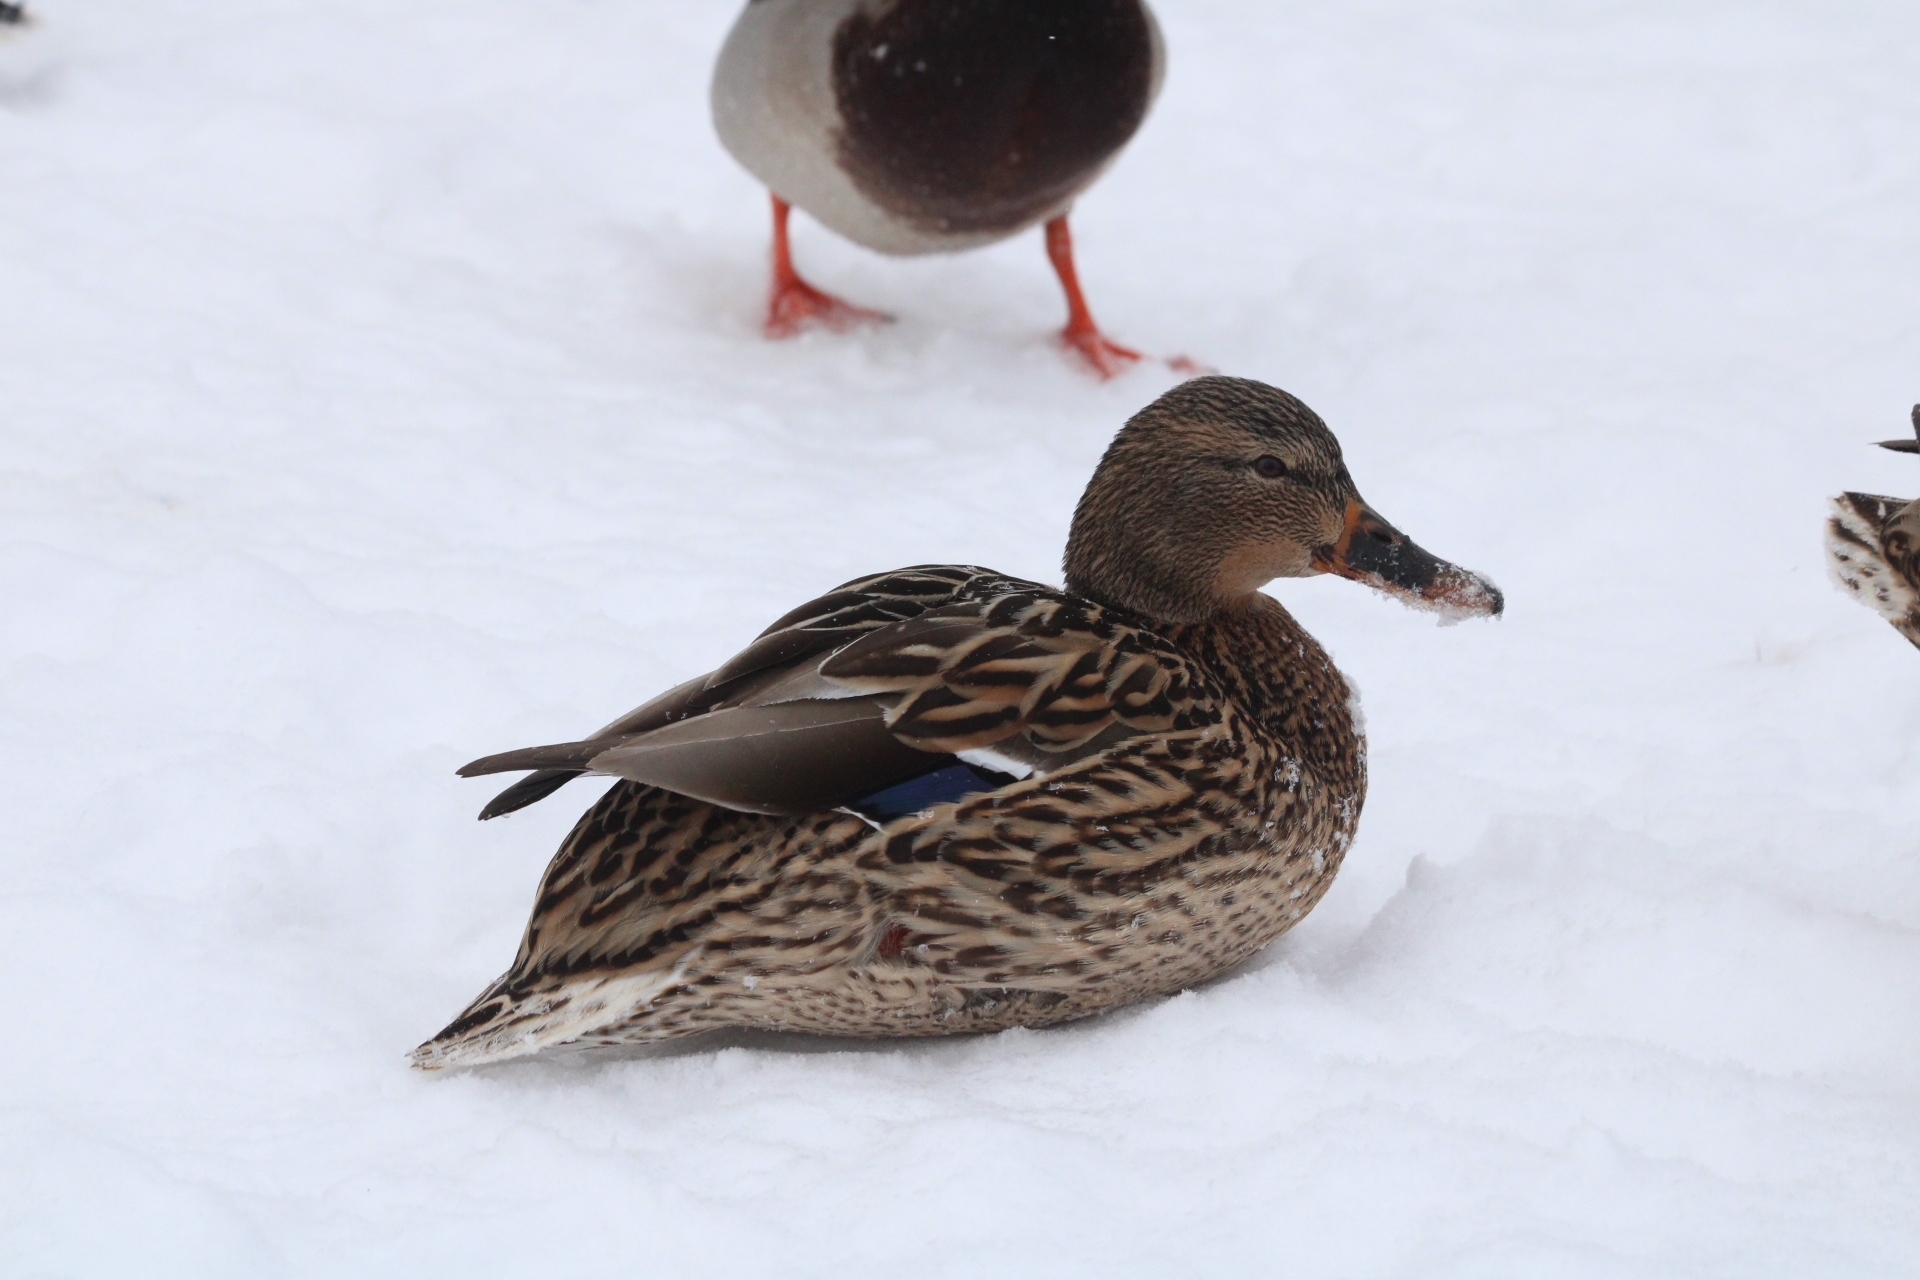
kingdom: Animalia
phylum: Chordata
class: Aves
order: Anseriformes
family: Anatidae
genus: Anas
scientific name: Anas platyrhynchos
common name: Mallard
